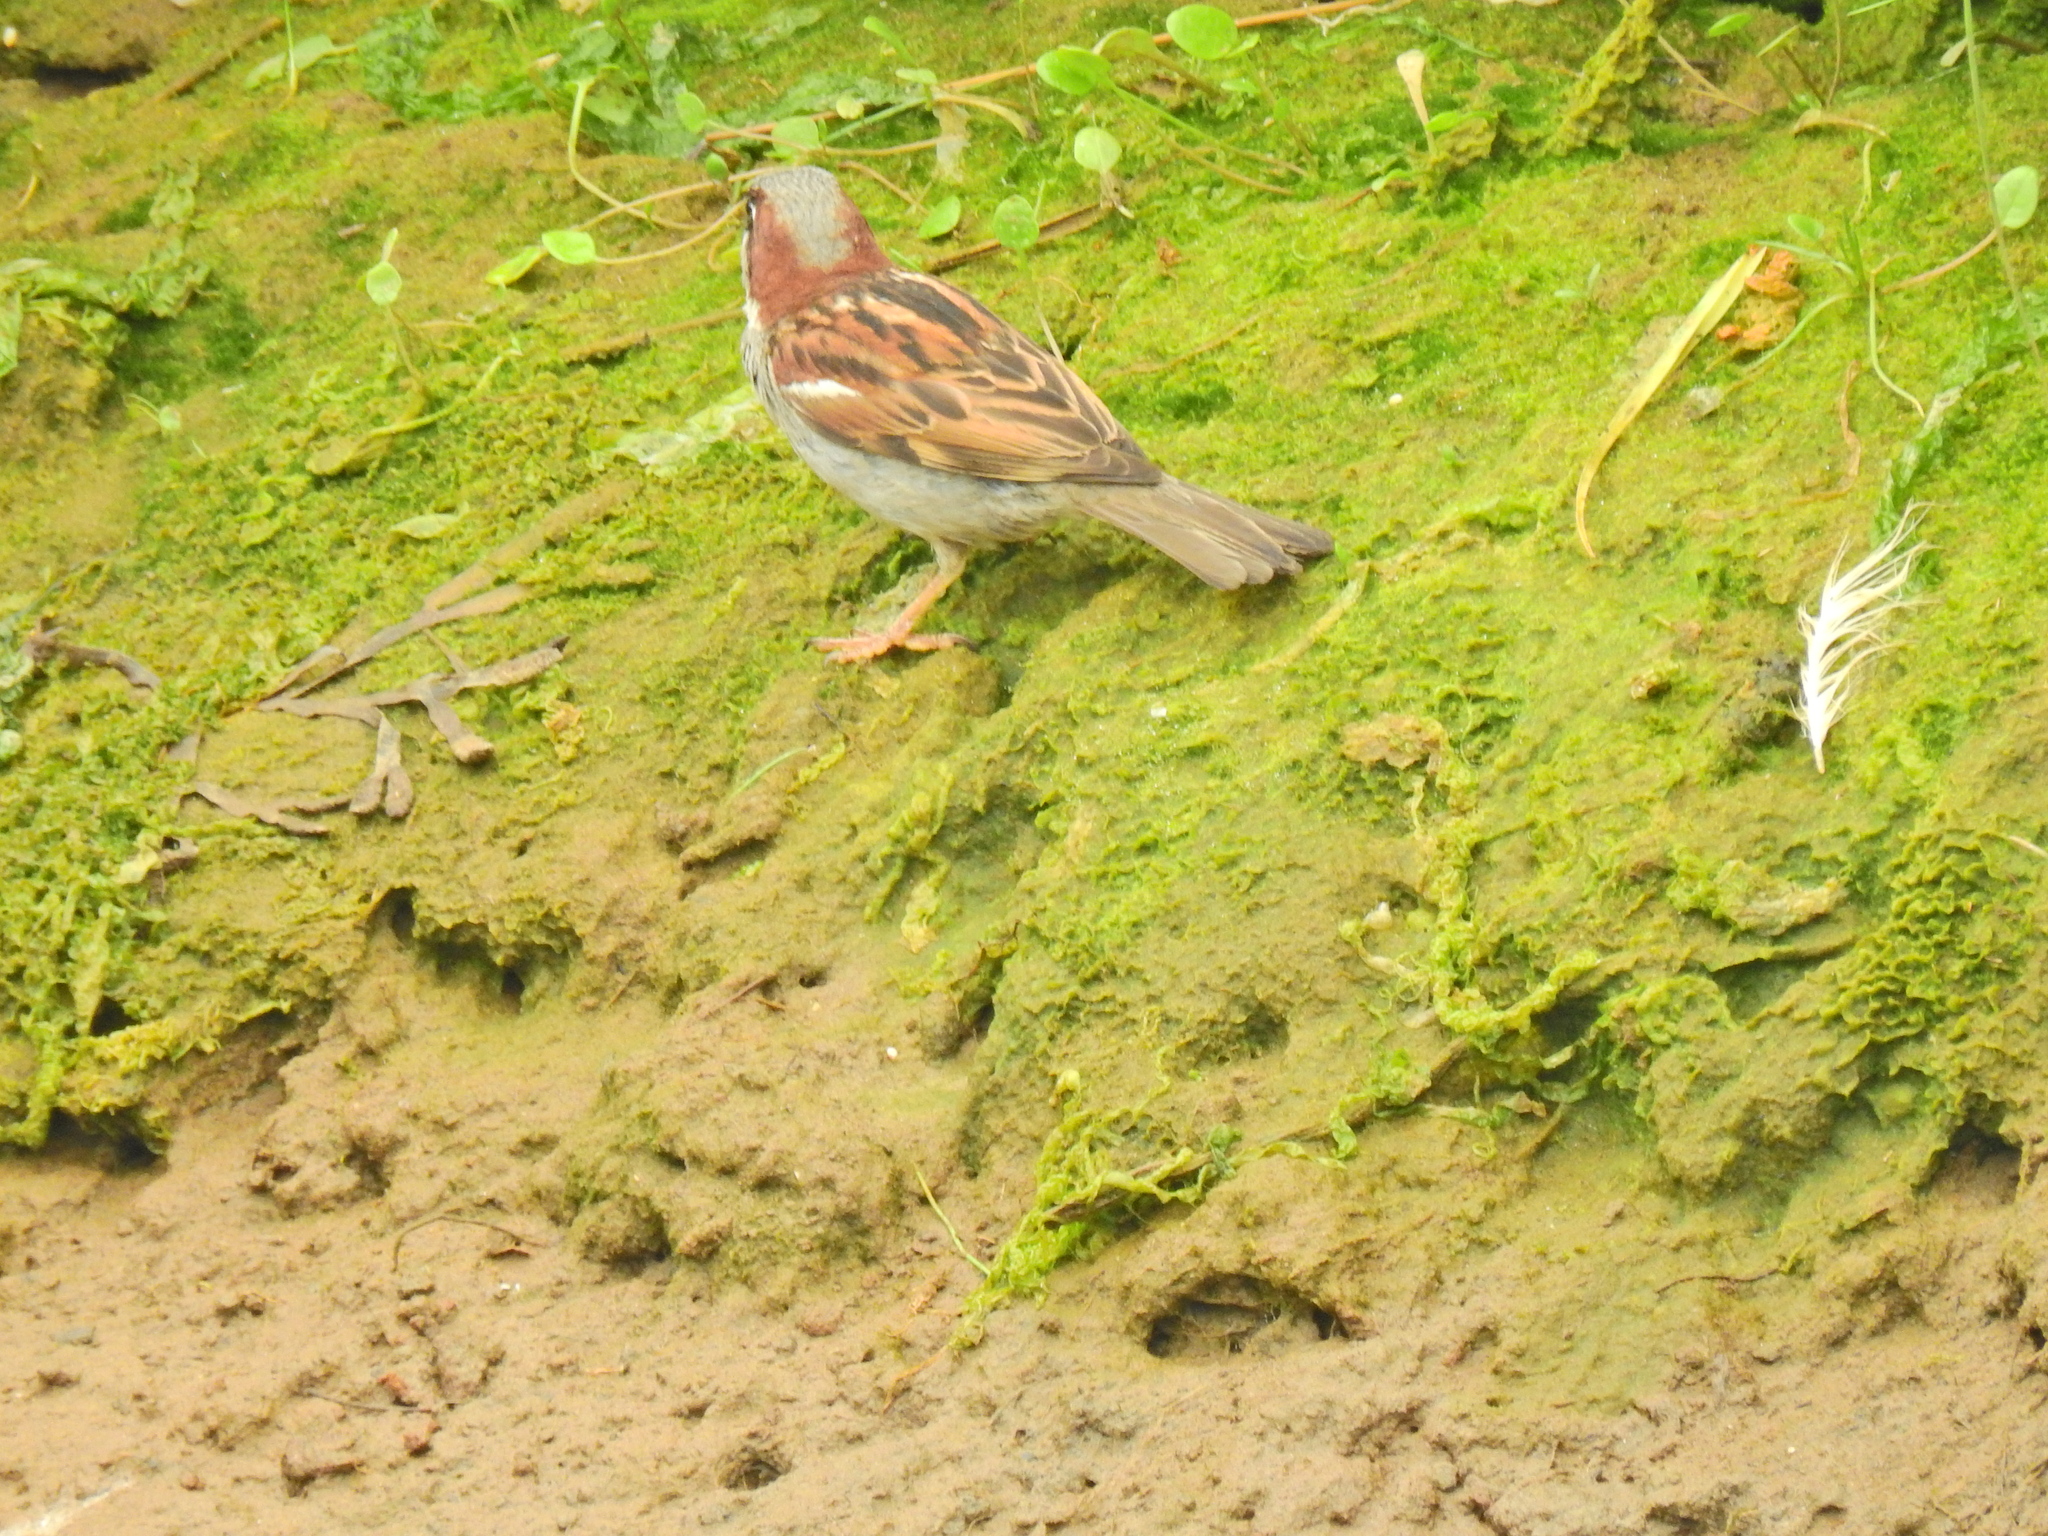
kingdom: Animalia
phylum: Chordata
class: Aves
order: Passeriformes
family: Passeridae
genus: Passer
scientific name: Passer domesticus
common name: House sparrow
